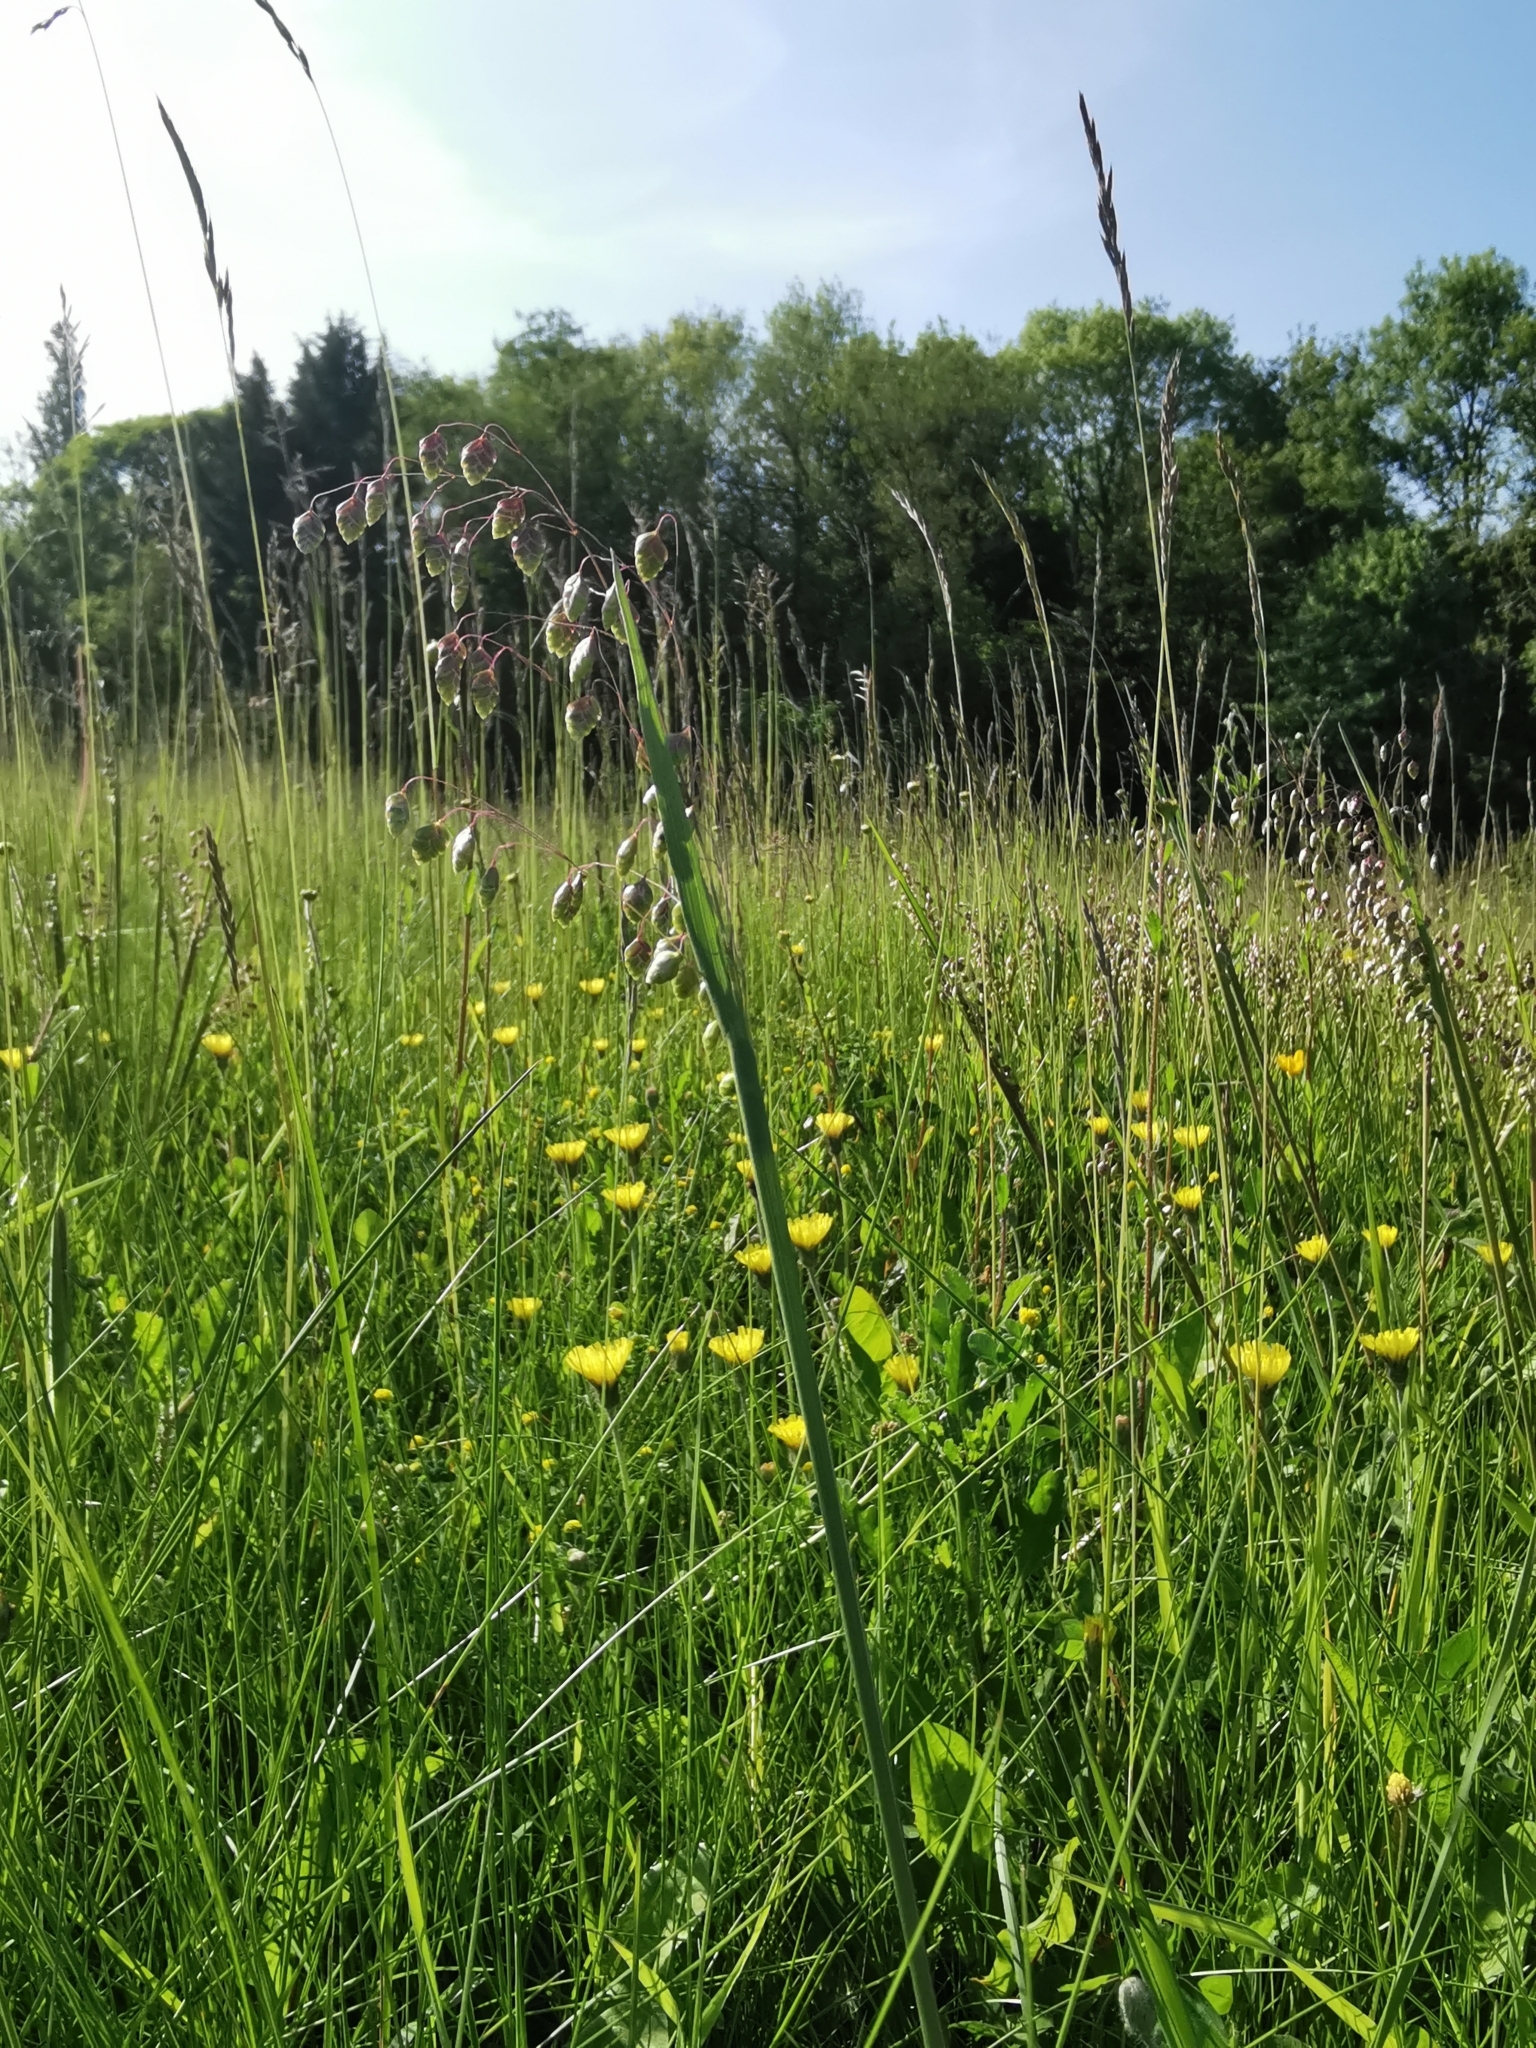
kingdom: Plantae
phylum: Tracheophyta
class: Liliopsida
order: Poales
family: Poaceae
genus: Briza
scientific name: Briza media
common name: Quaking grass
